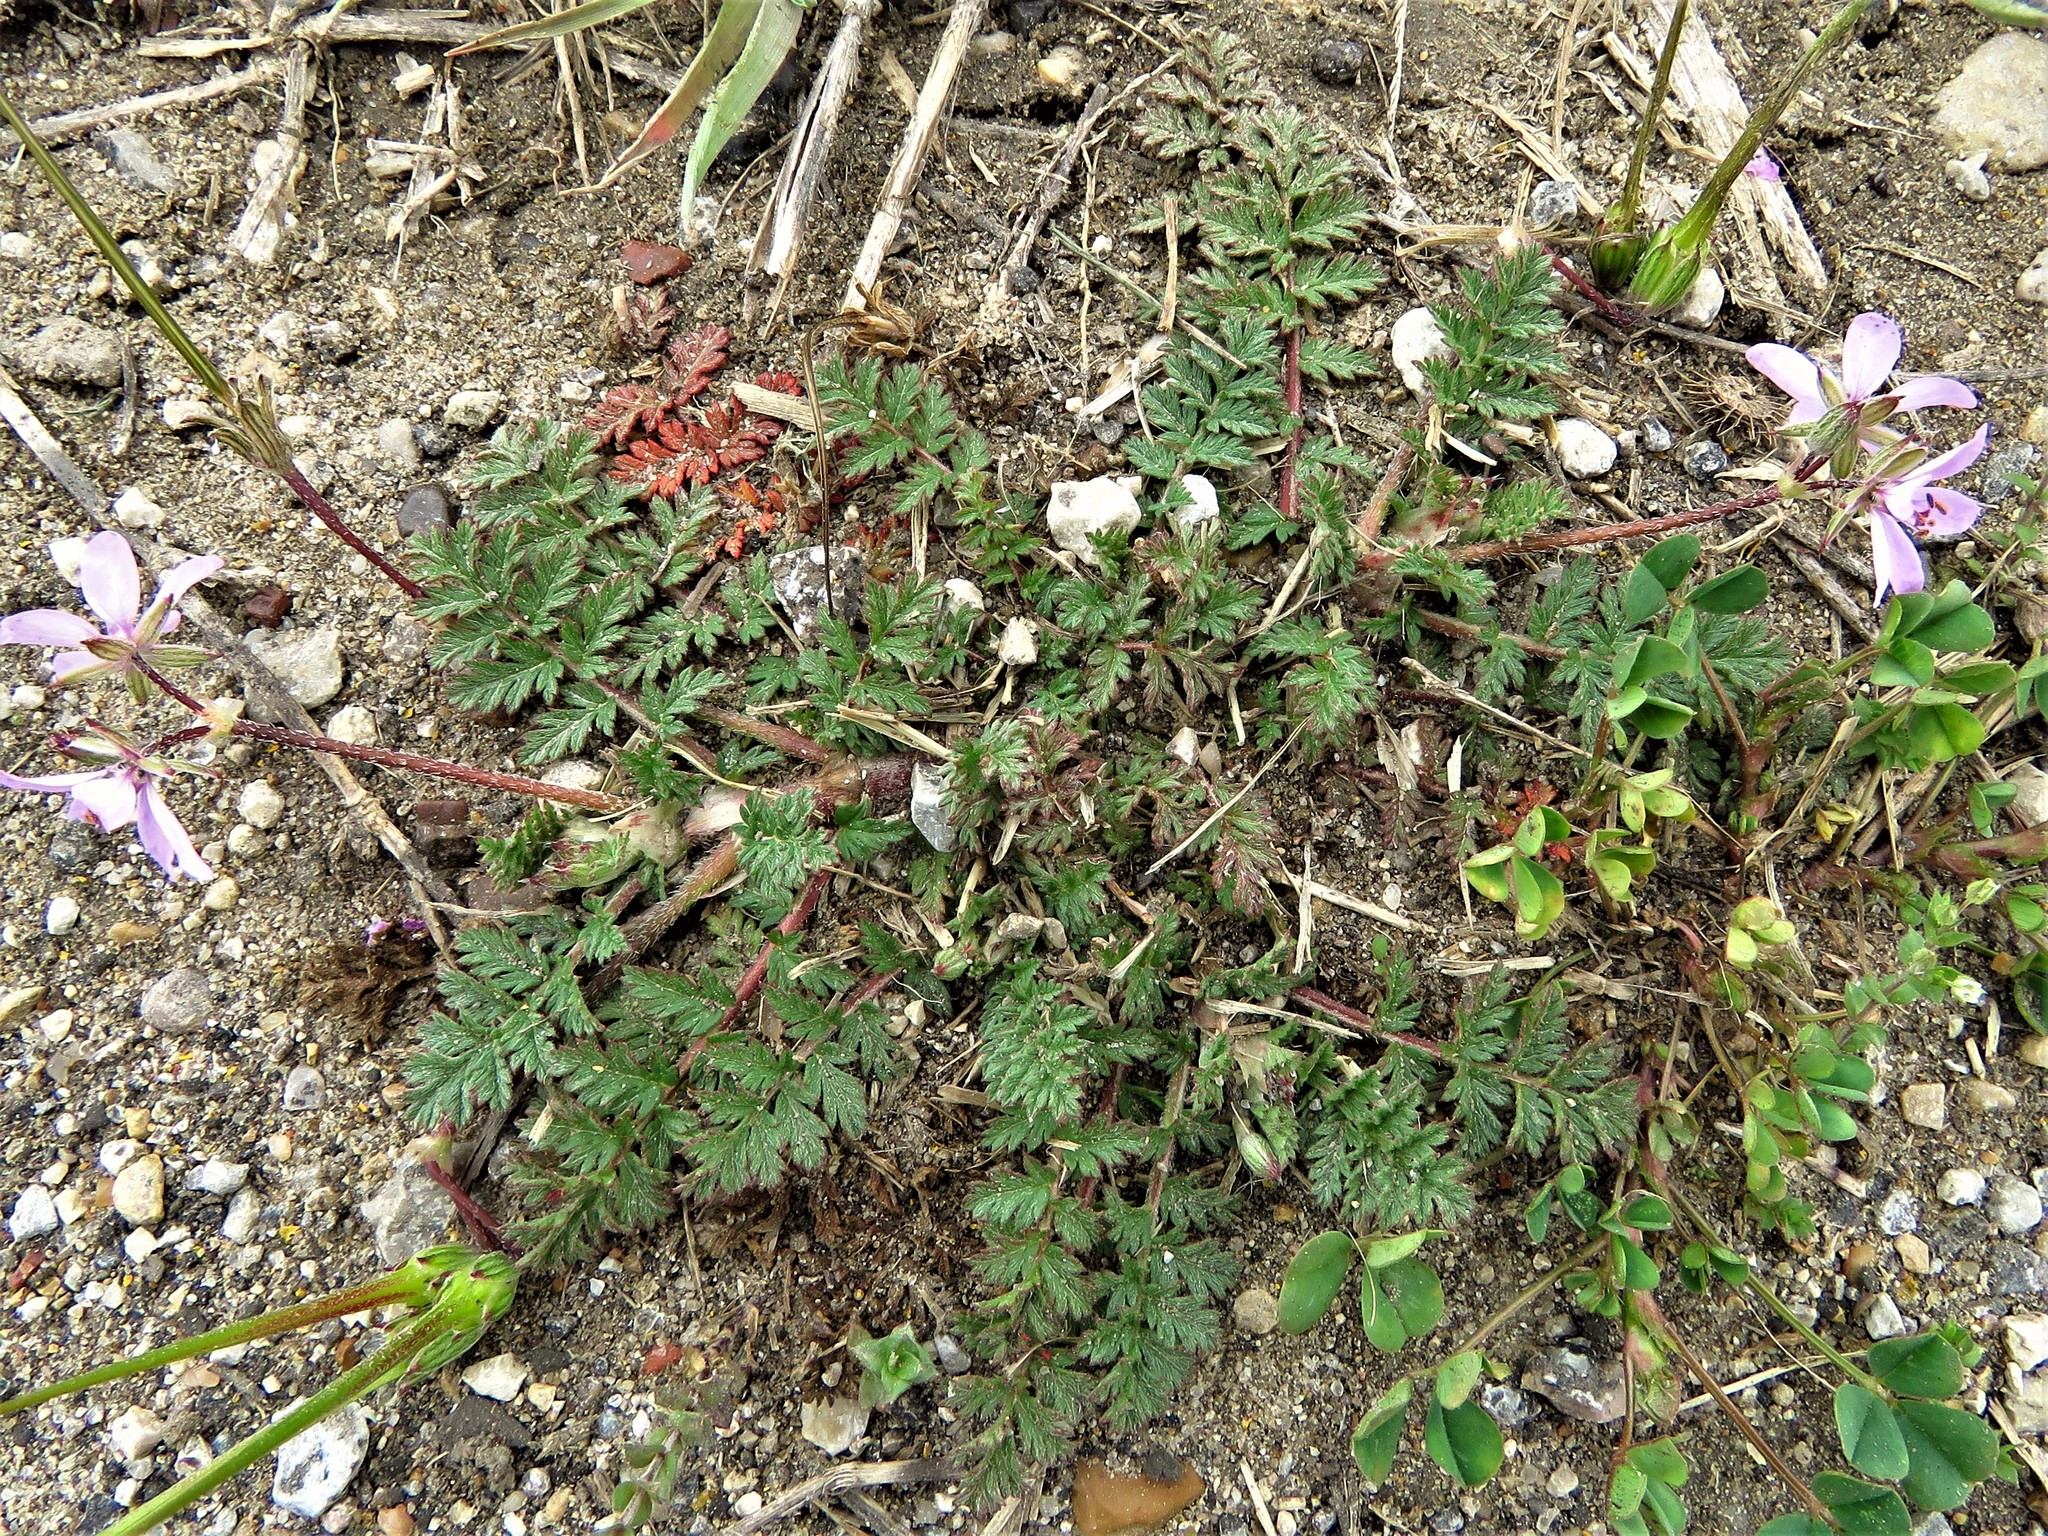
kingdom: Plantae
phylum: Tracheophyta
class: Magnoliopsida
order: Geraniales
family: Geraniaceae
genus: Erodium
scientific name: Erodium cicutarium
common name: Common stork's-bill
